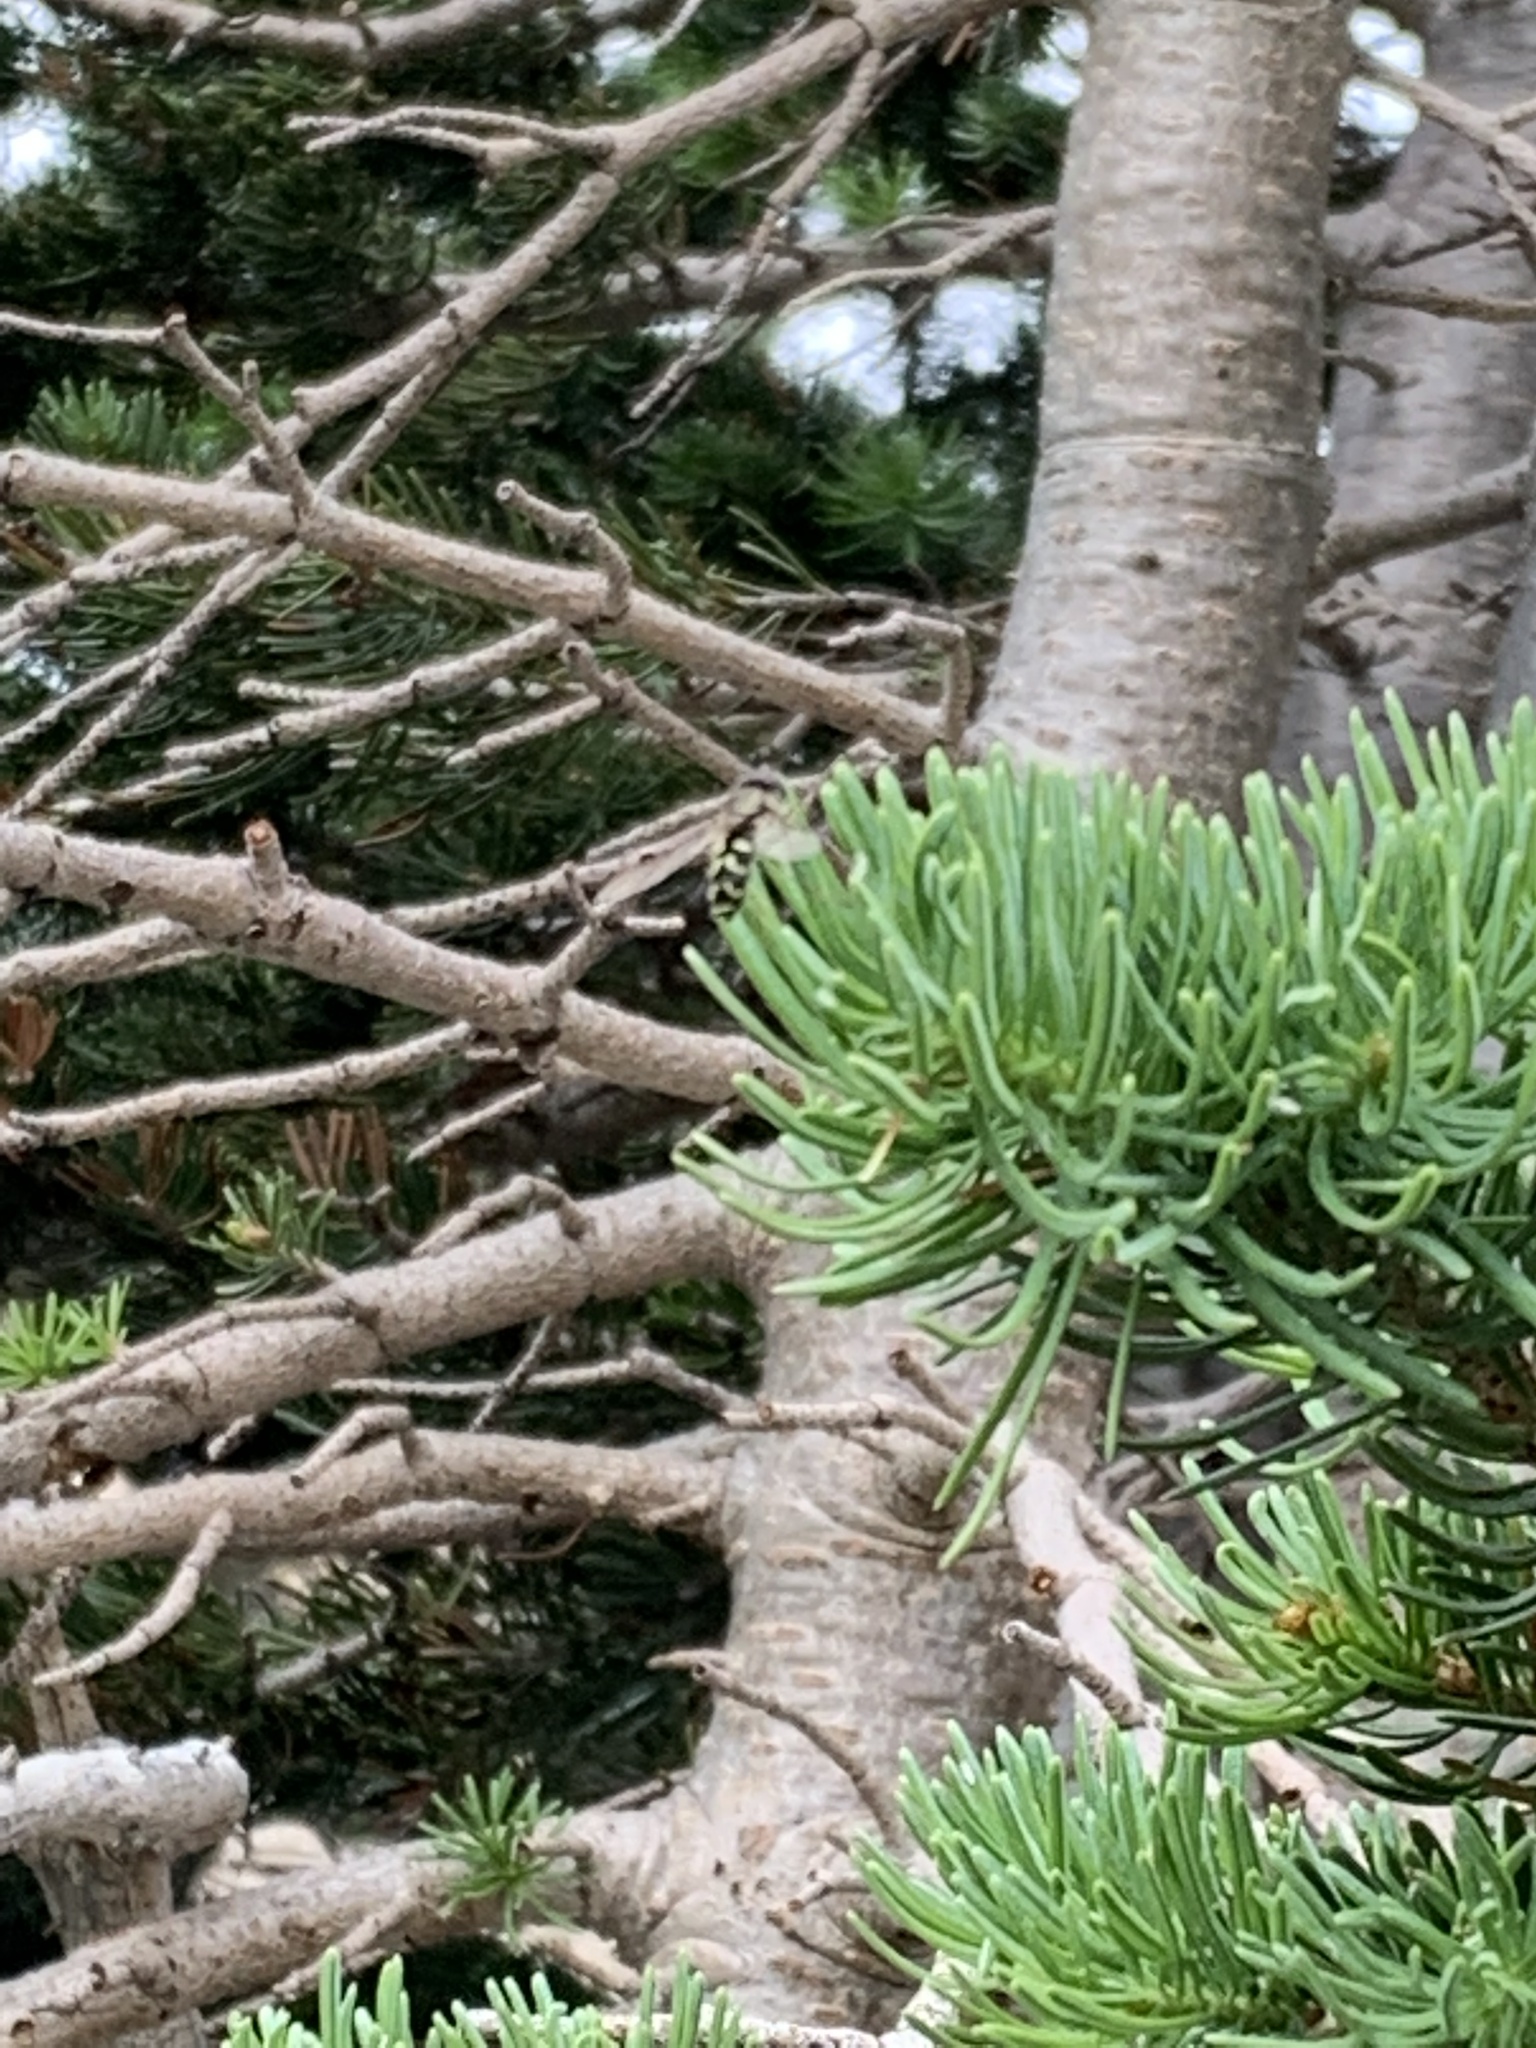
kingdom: Animalia
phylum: Arthropoda
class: Insecta
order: Diptera
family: Syrphidae
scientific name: Syrphidae
